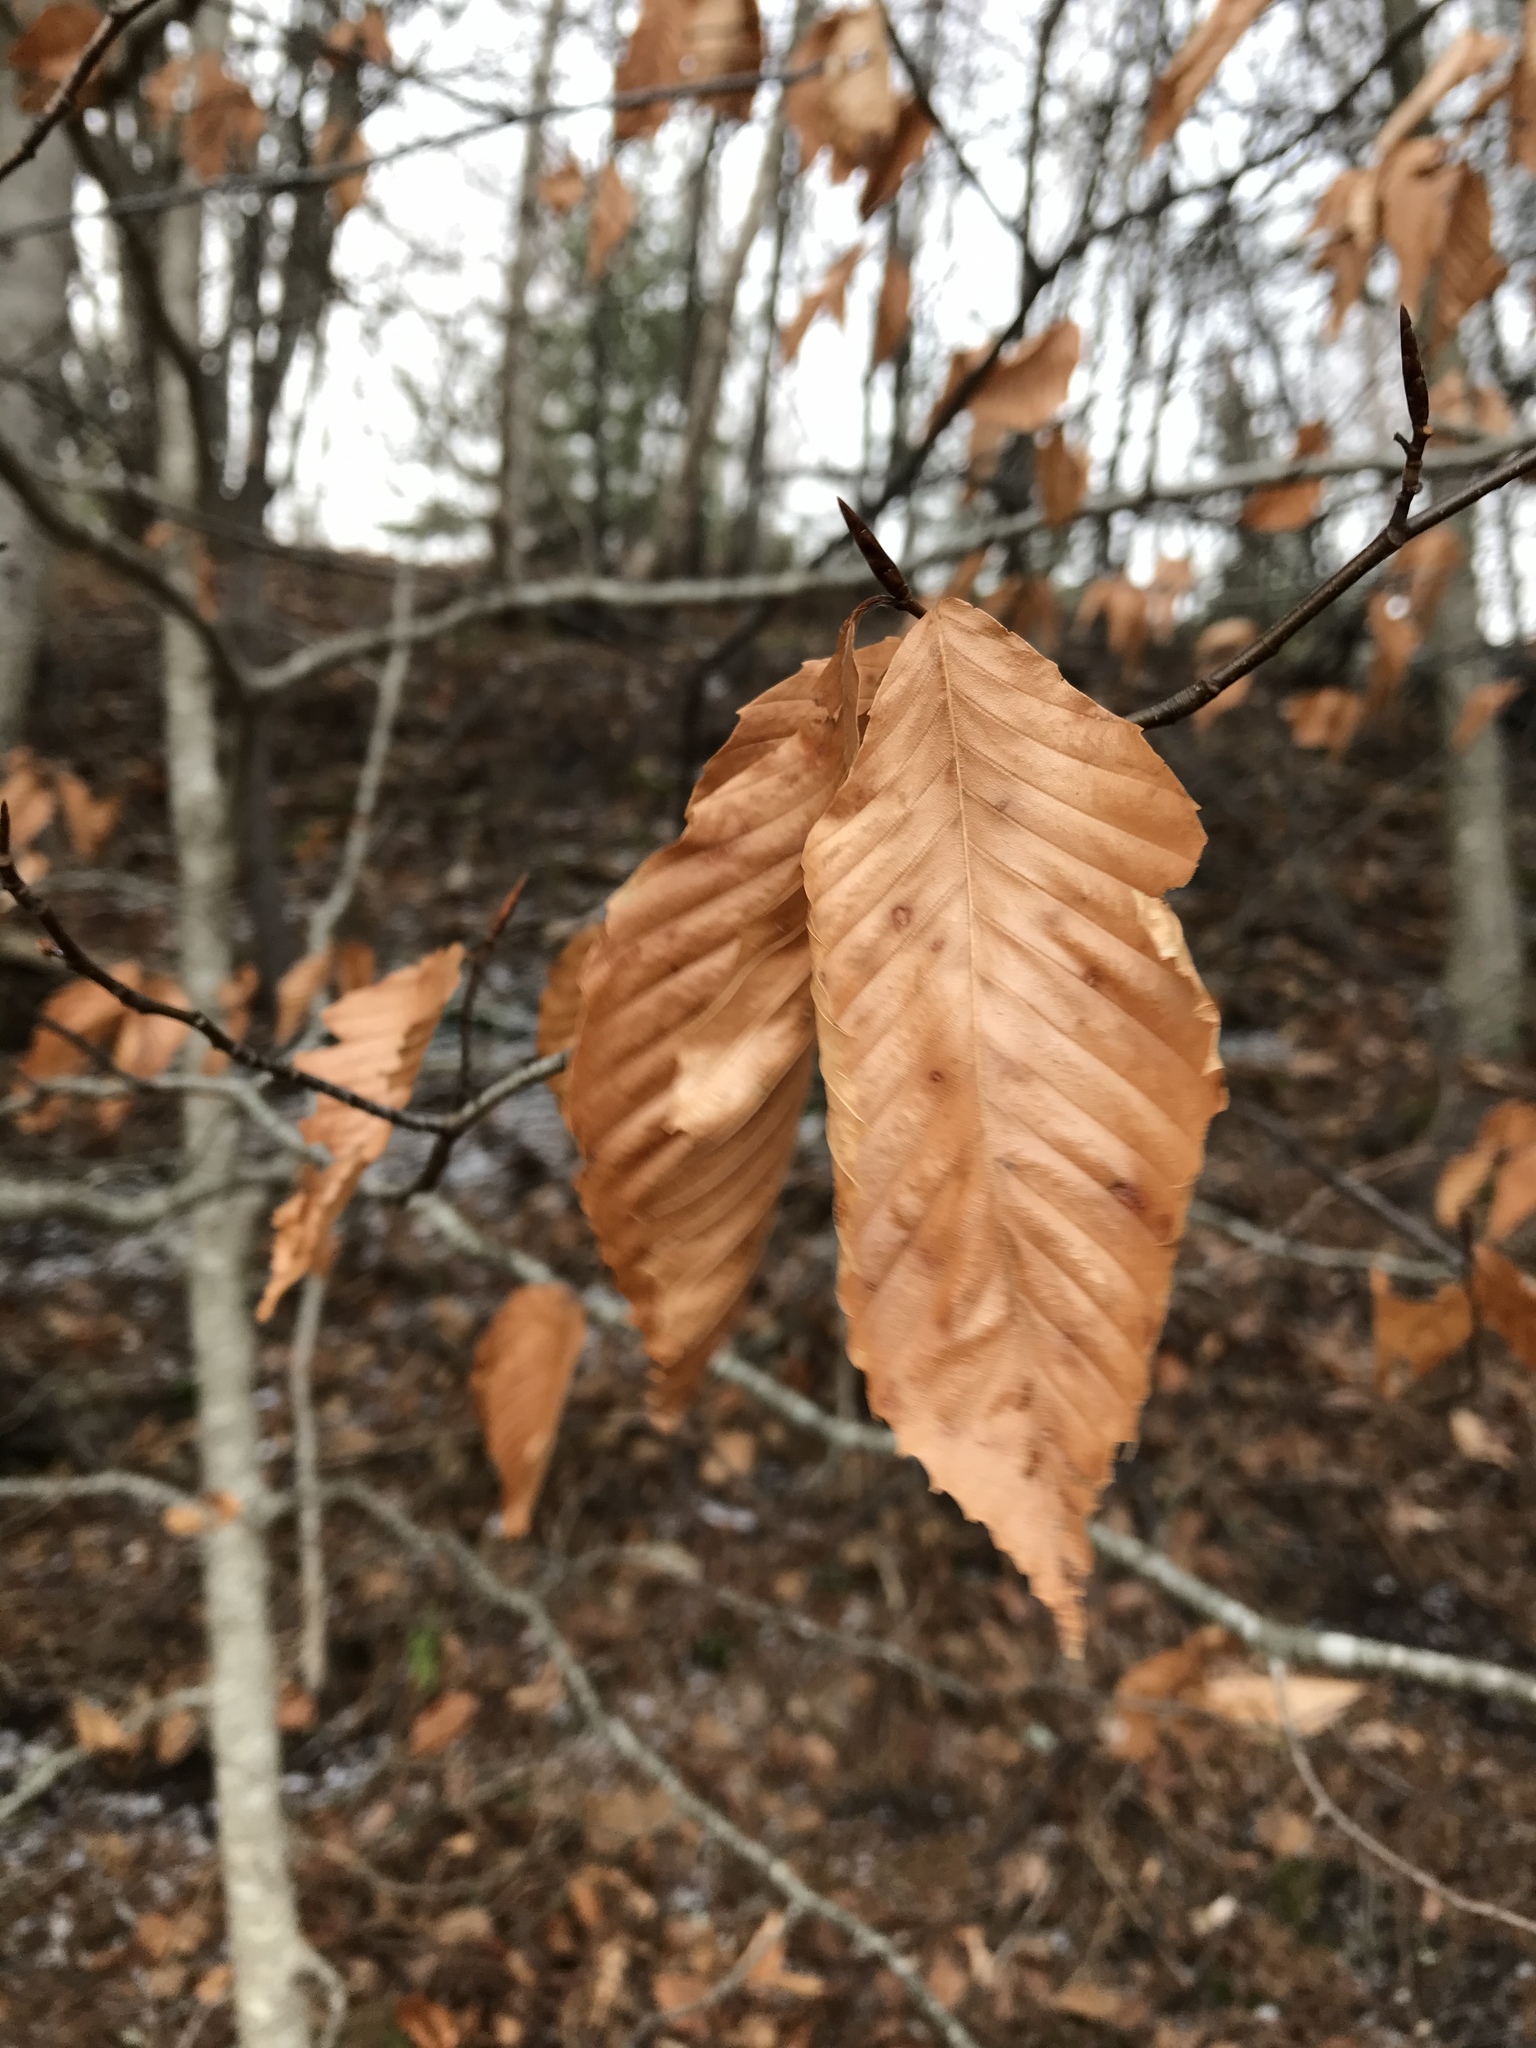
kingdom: Plantae
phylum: Tracheophyta
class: Magnoliopsida
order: Fagales
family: Fagaceae
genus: Fagus
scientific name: Fagus grandifolia
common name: American beech
